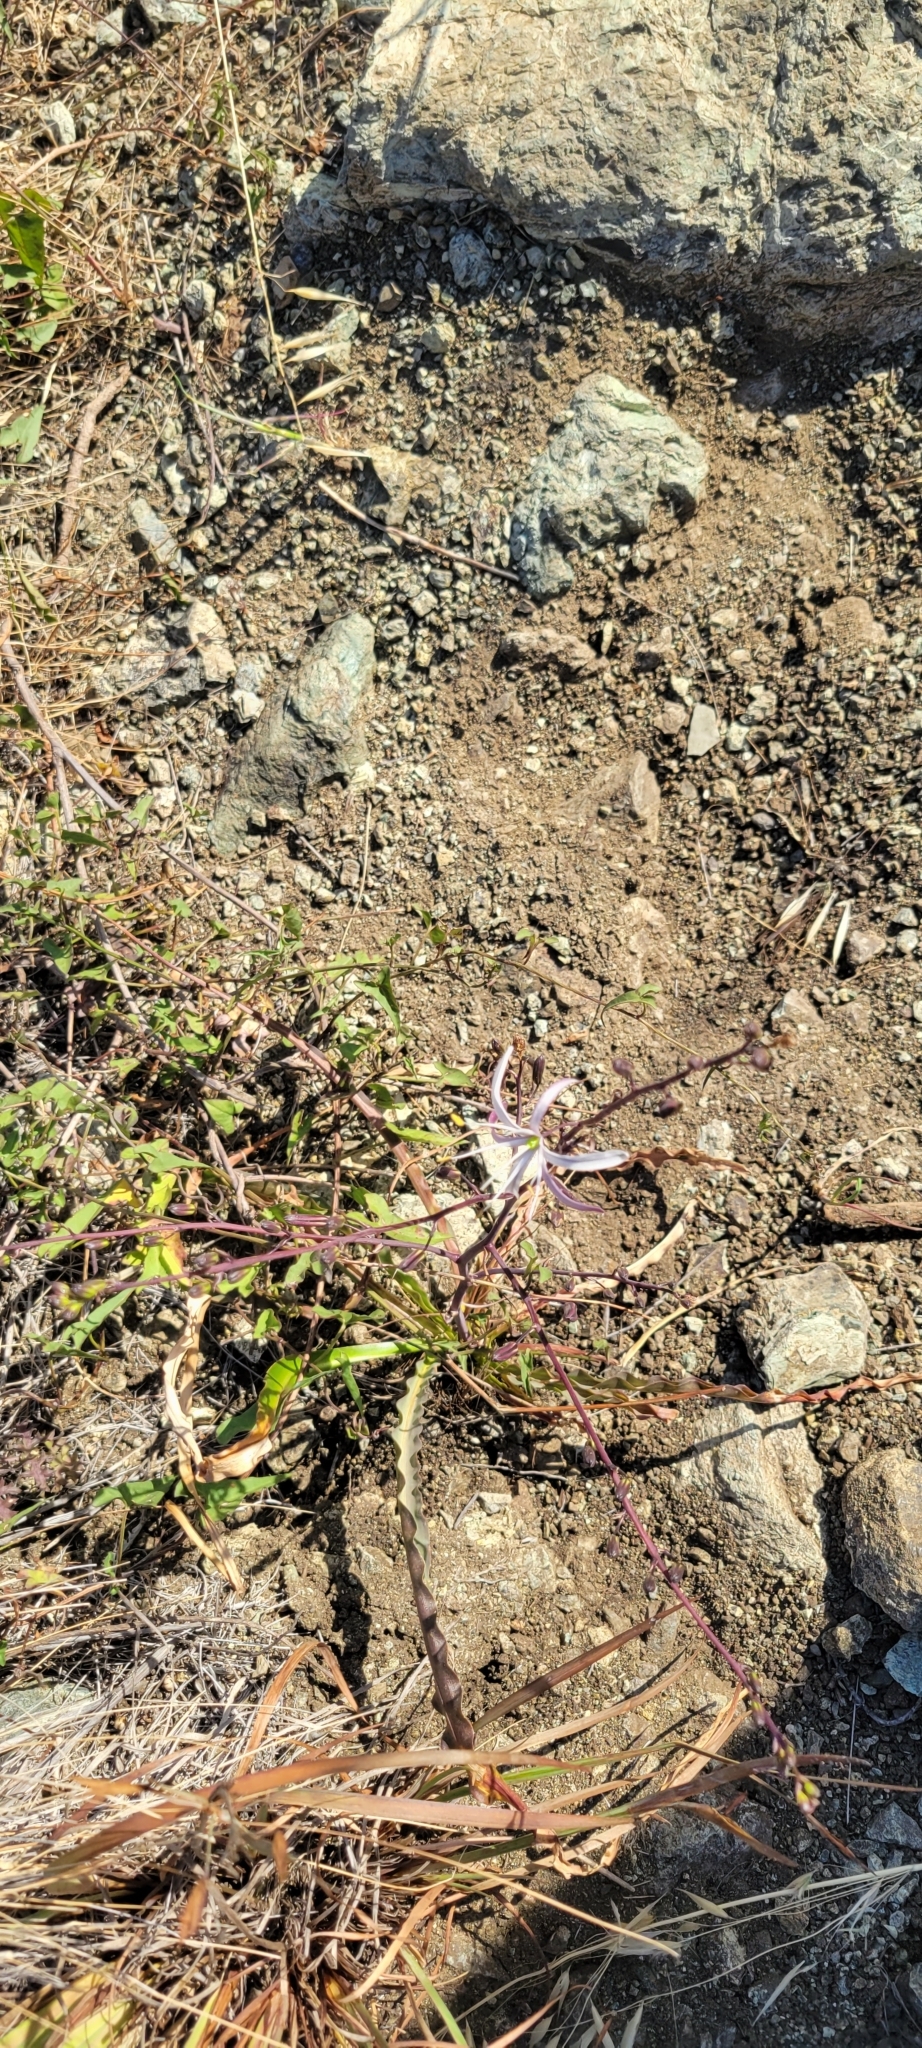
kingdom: Plantae
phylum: Tracheophyta
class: Liliopsida
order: Asparagales
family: Asparagaceae
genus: Chlorogalum
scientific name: Chlorogalum pomeridianum
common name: Amole
